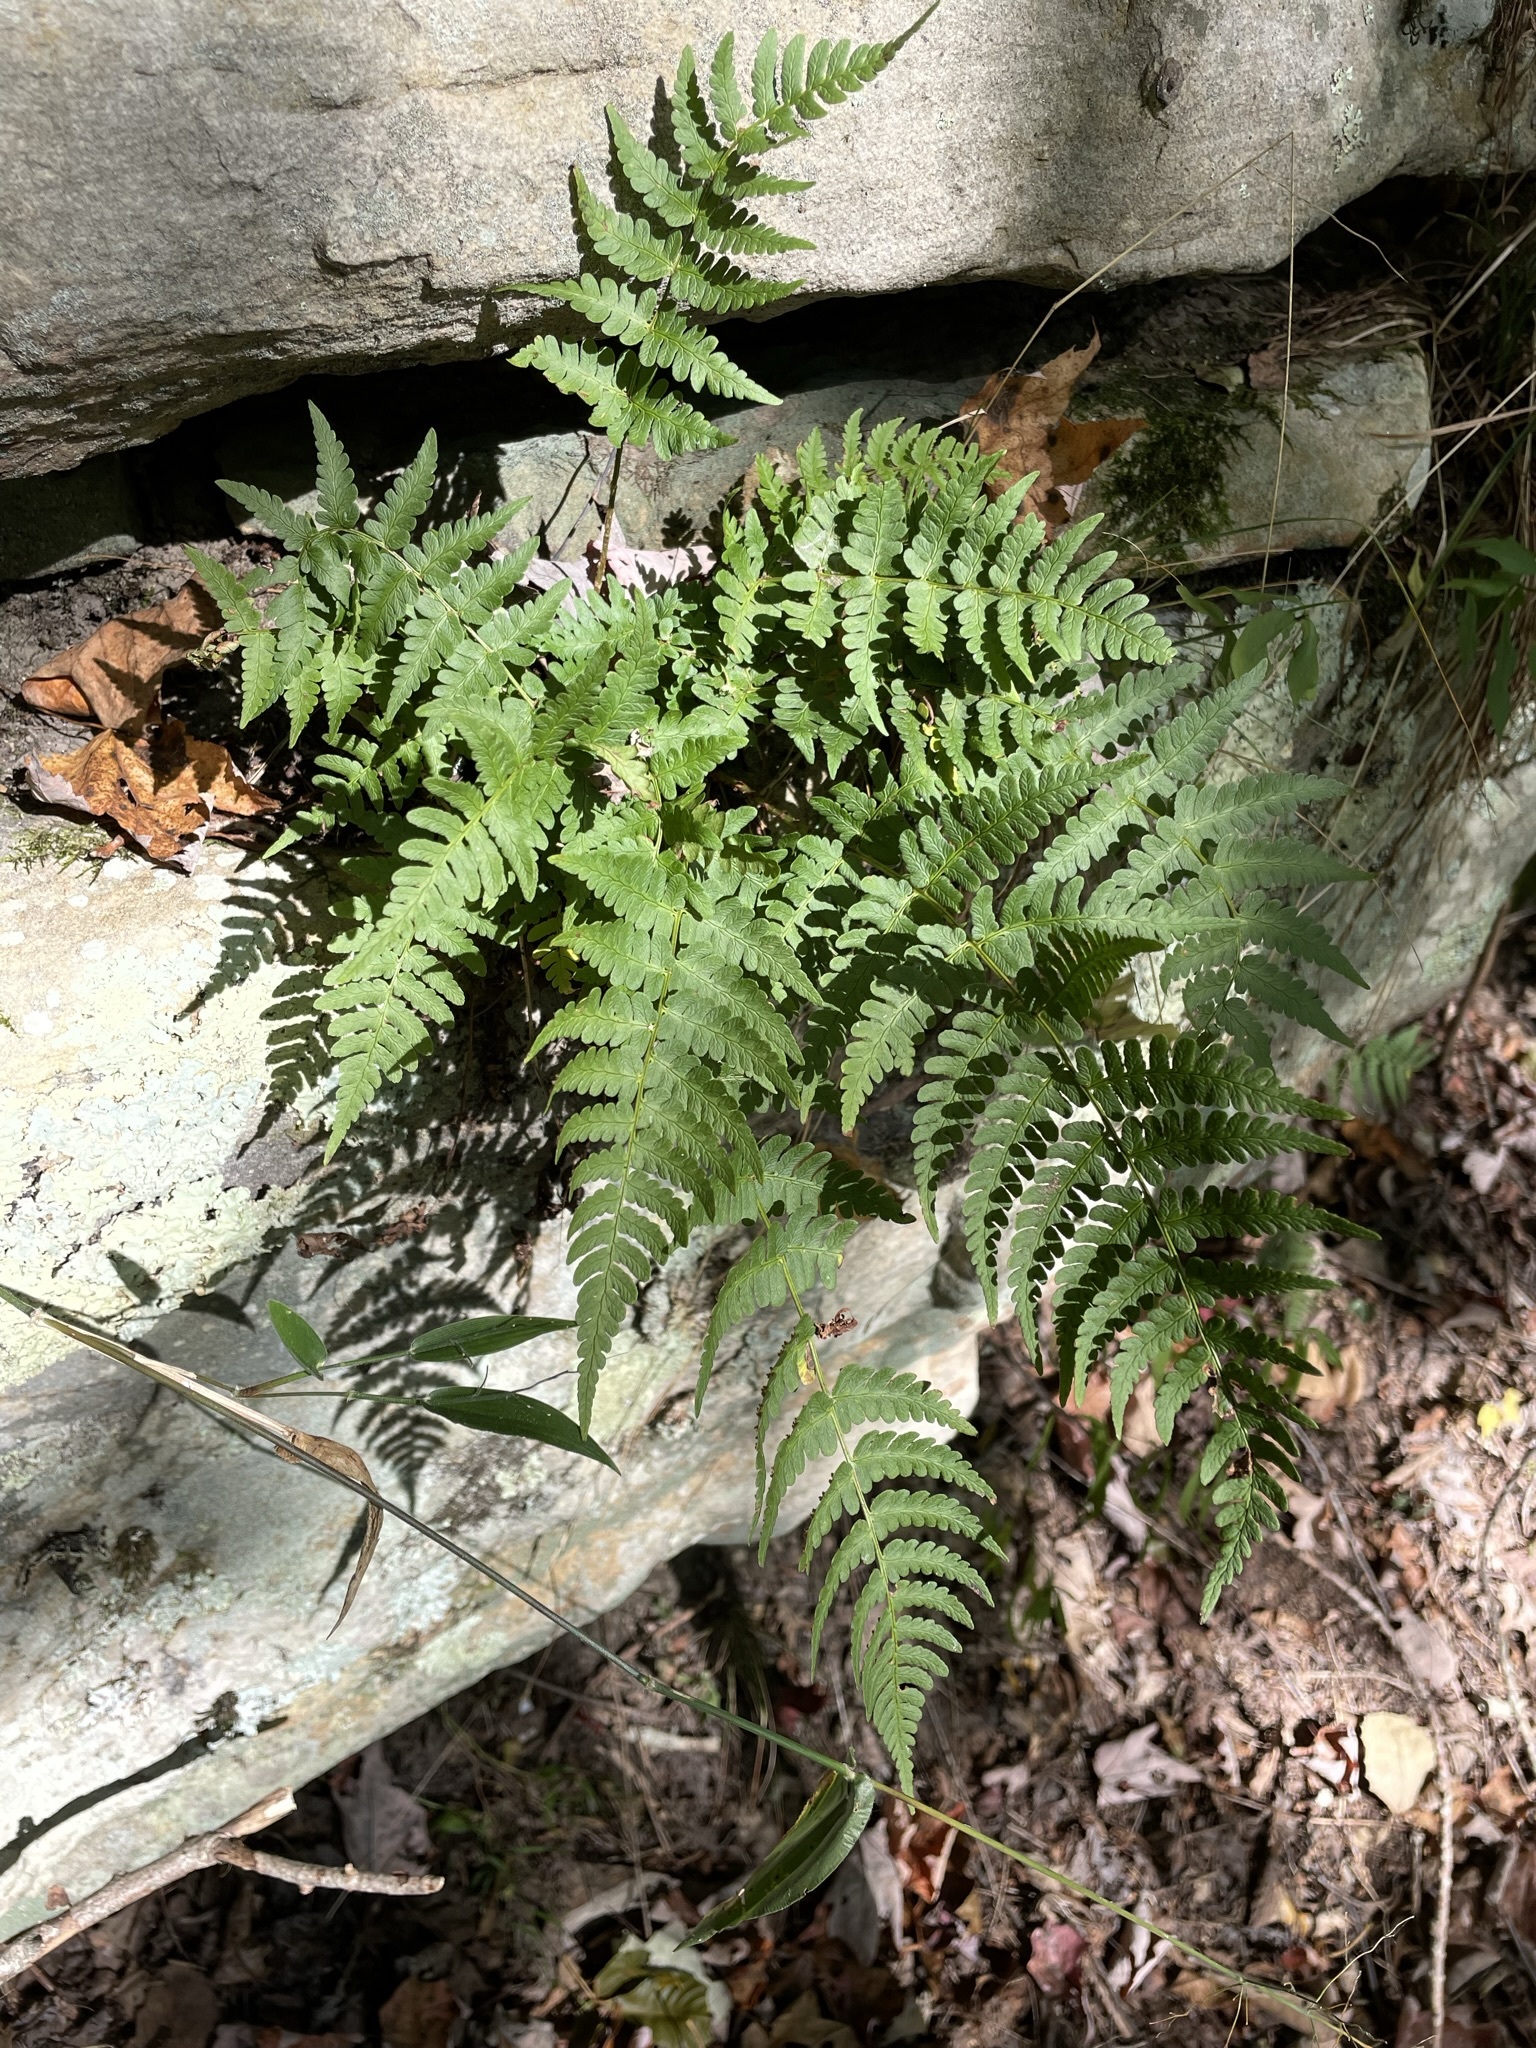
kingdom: Plantae
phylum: Tracheophyta
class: Polypodiopsida
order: Polypodiales
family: Dryopteridaceae
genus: Dryopteris
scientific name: Dryopteris marginalis
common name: Marginal wood fern
